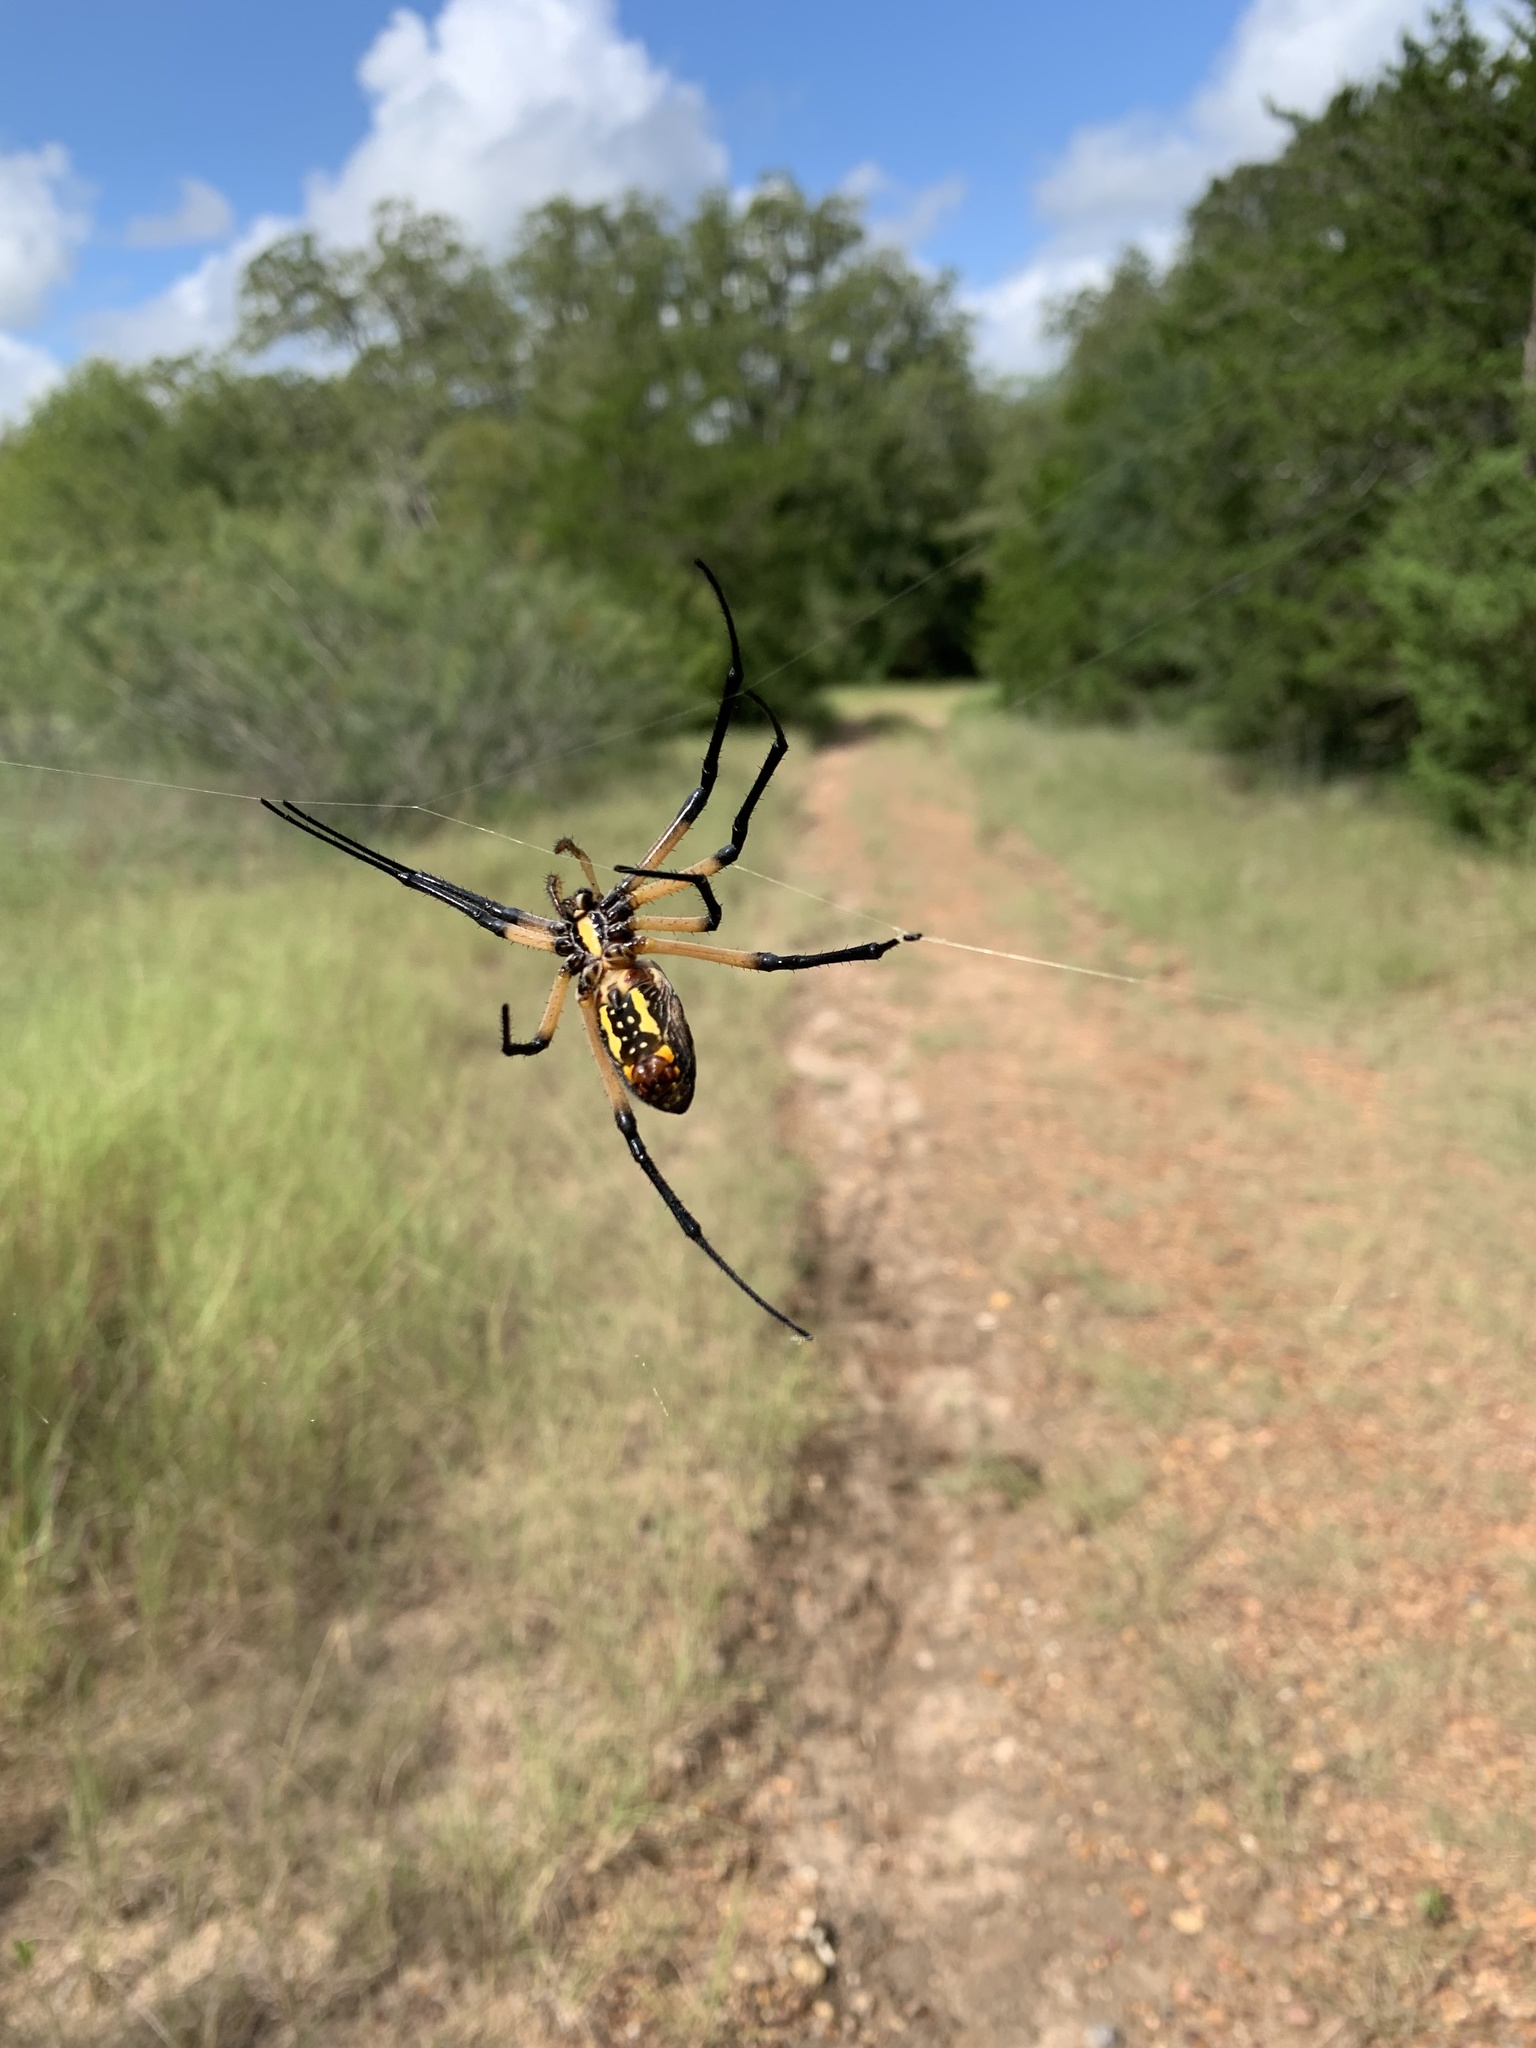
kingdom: Animalia
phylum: Arthropoda
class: Arachnida
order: Araneae
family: Araneidae
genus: Argiope
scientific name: Argiope aurantia
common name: Orb weavers
